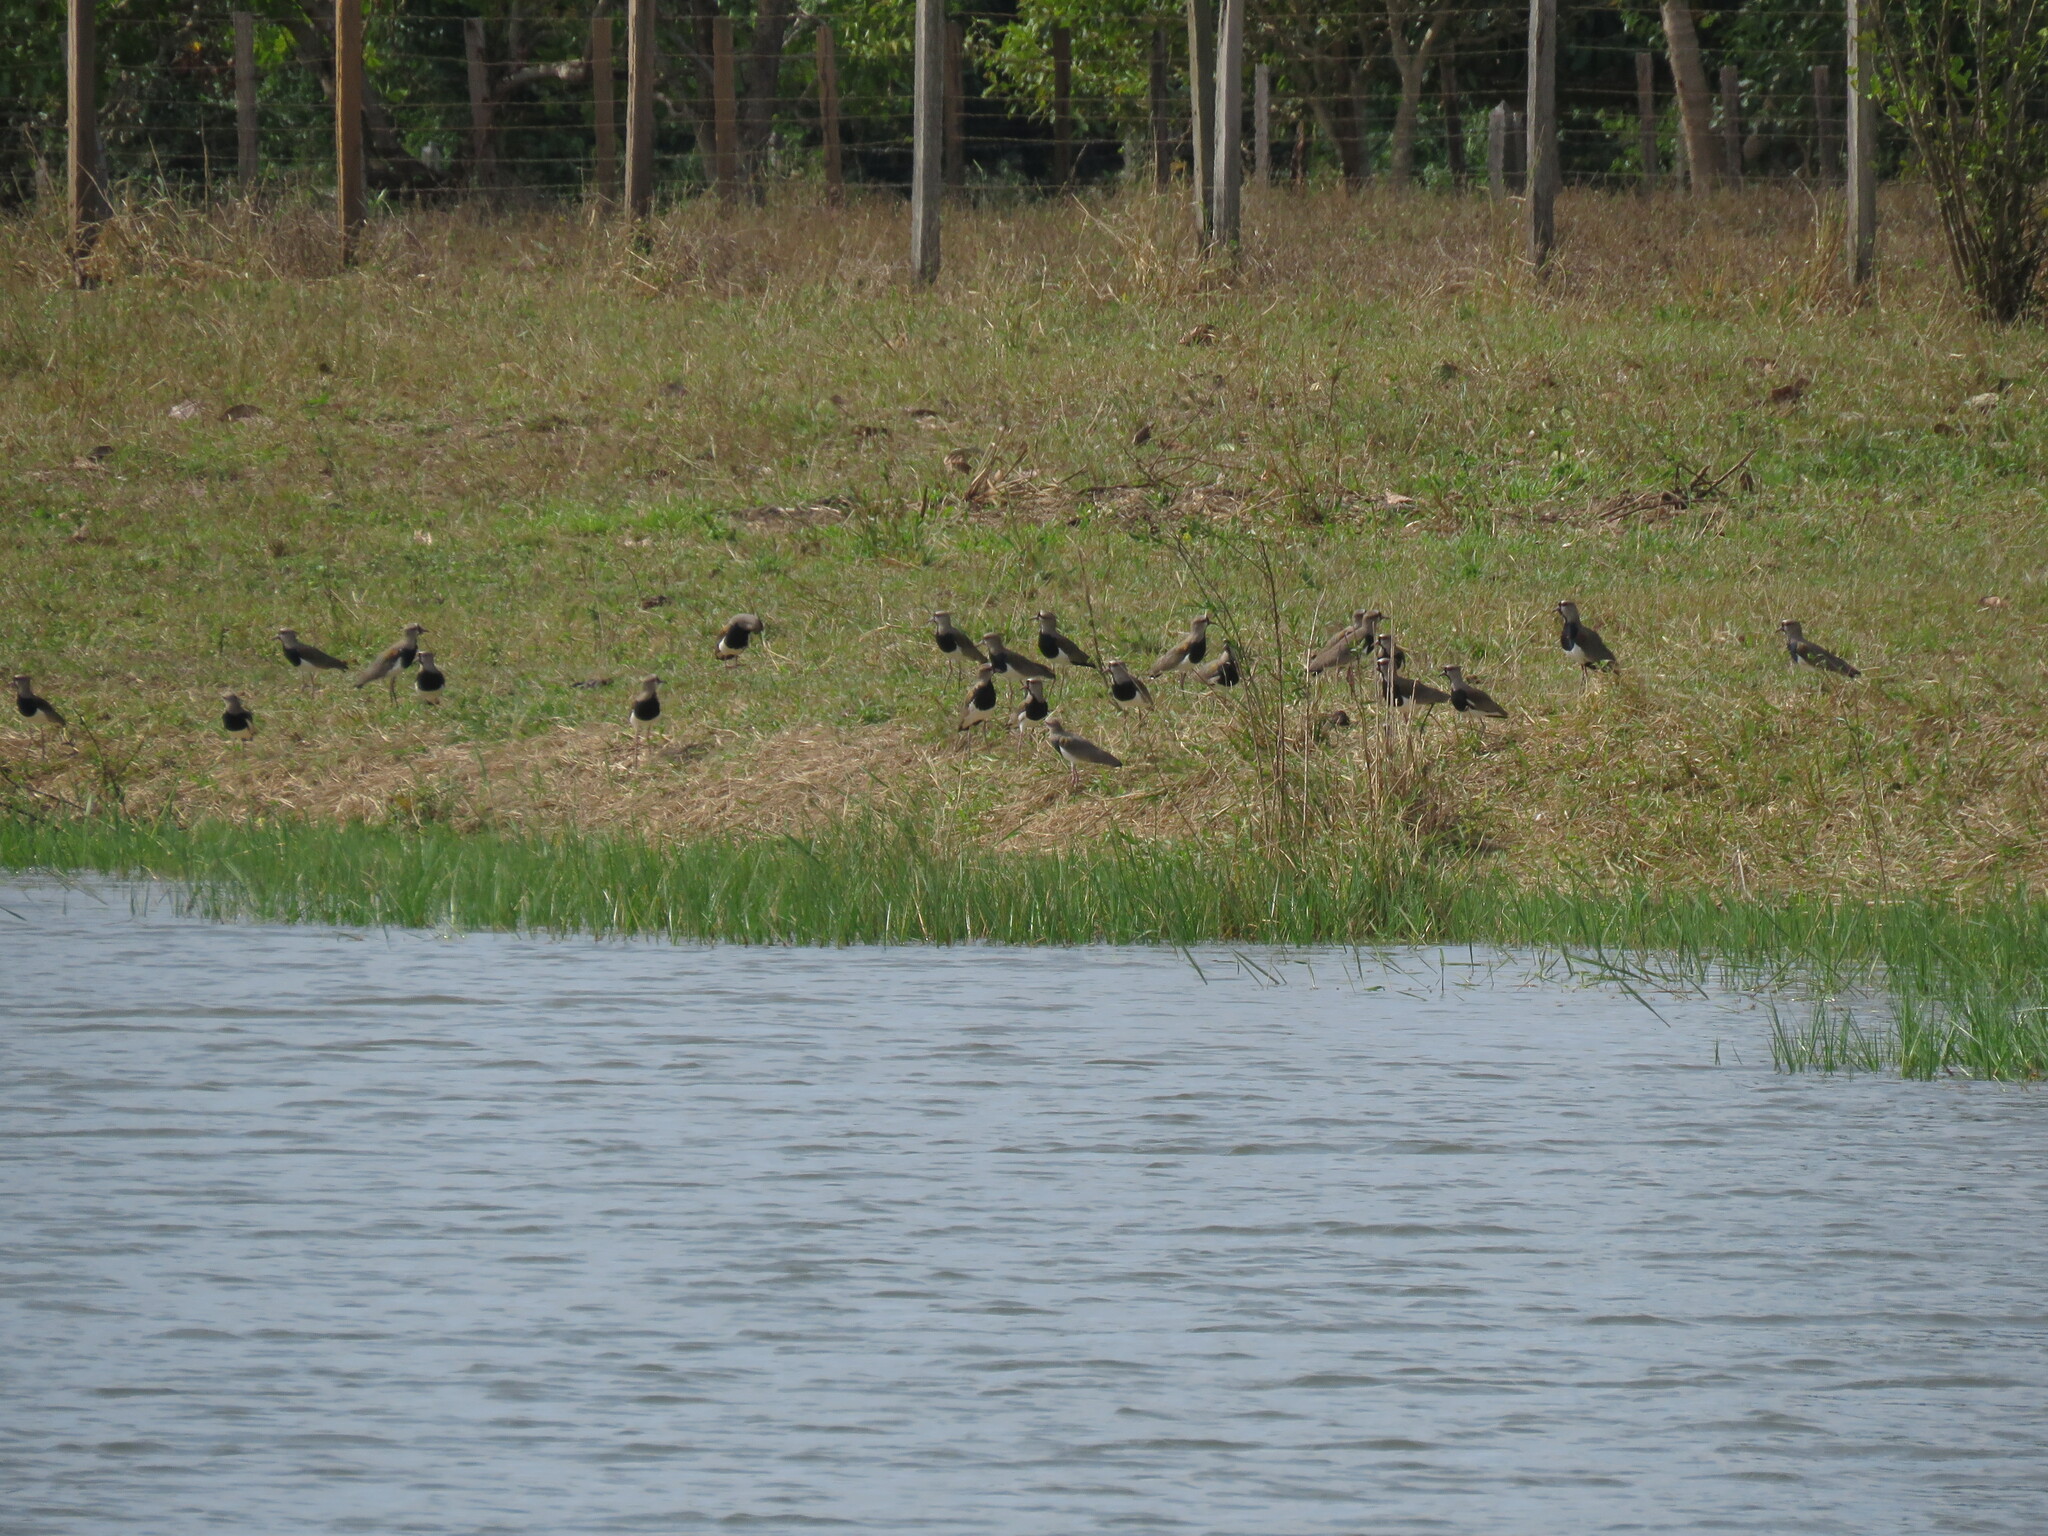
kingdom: Animalia
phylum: Chordata
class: Aves
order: Charadriiformes
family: Charadriidae
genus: Vanellus
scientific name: Vanellus chilensis
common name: Southern lapwing
